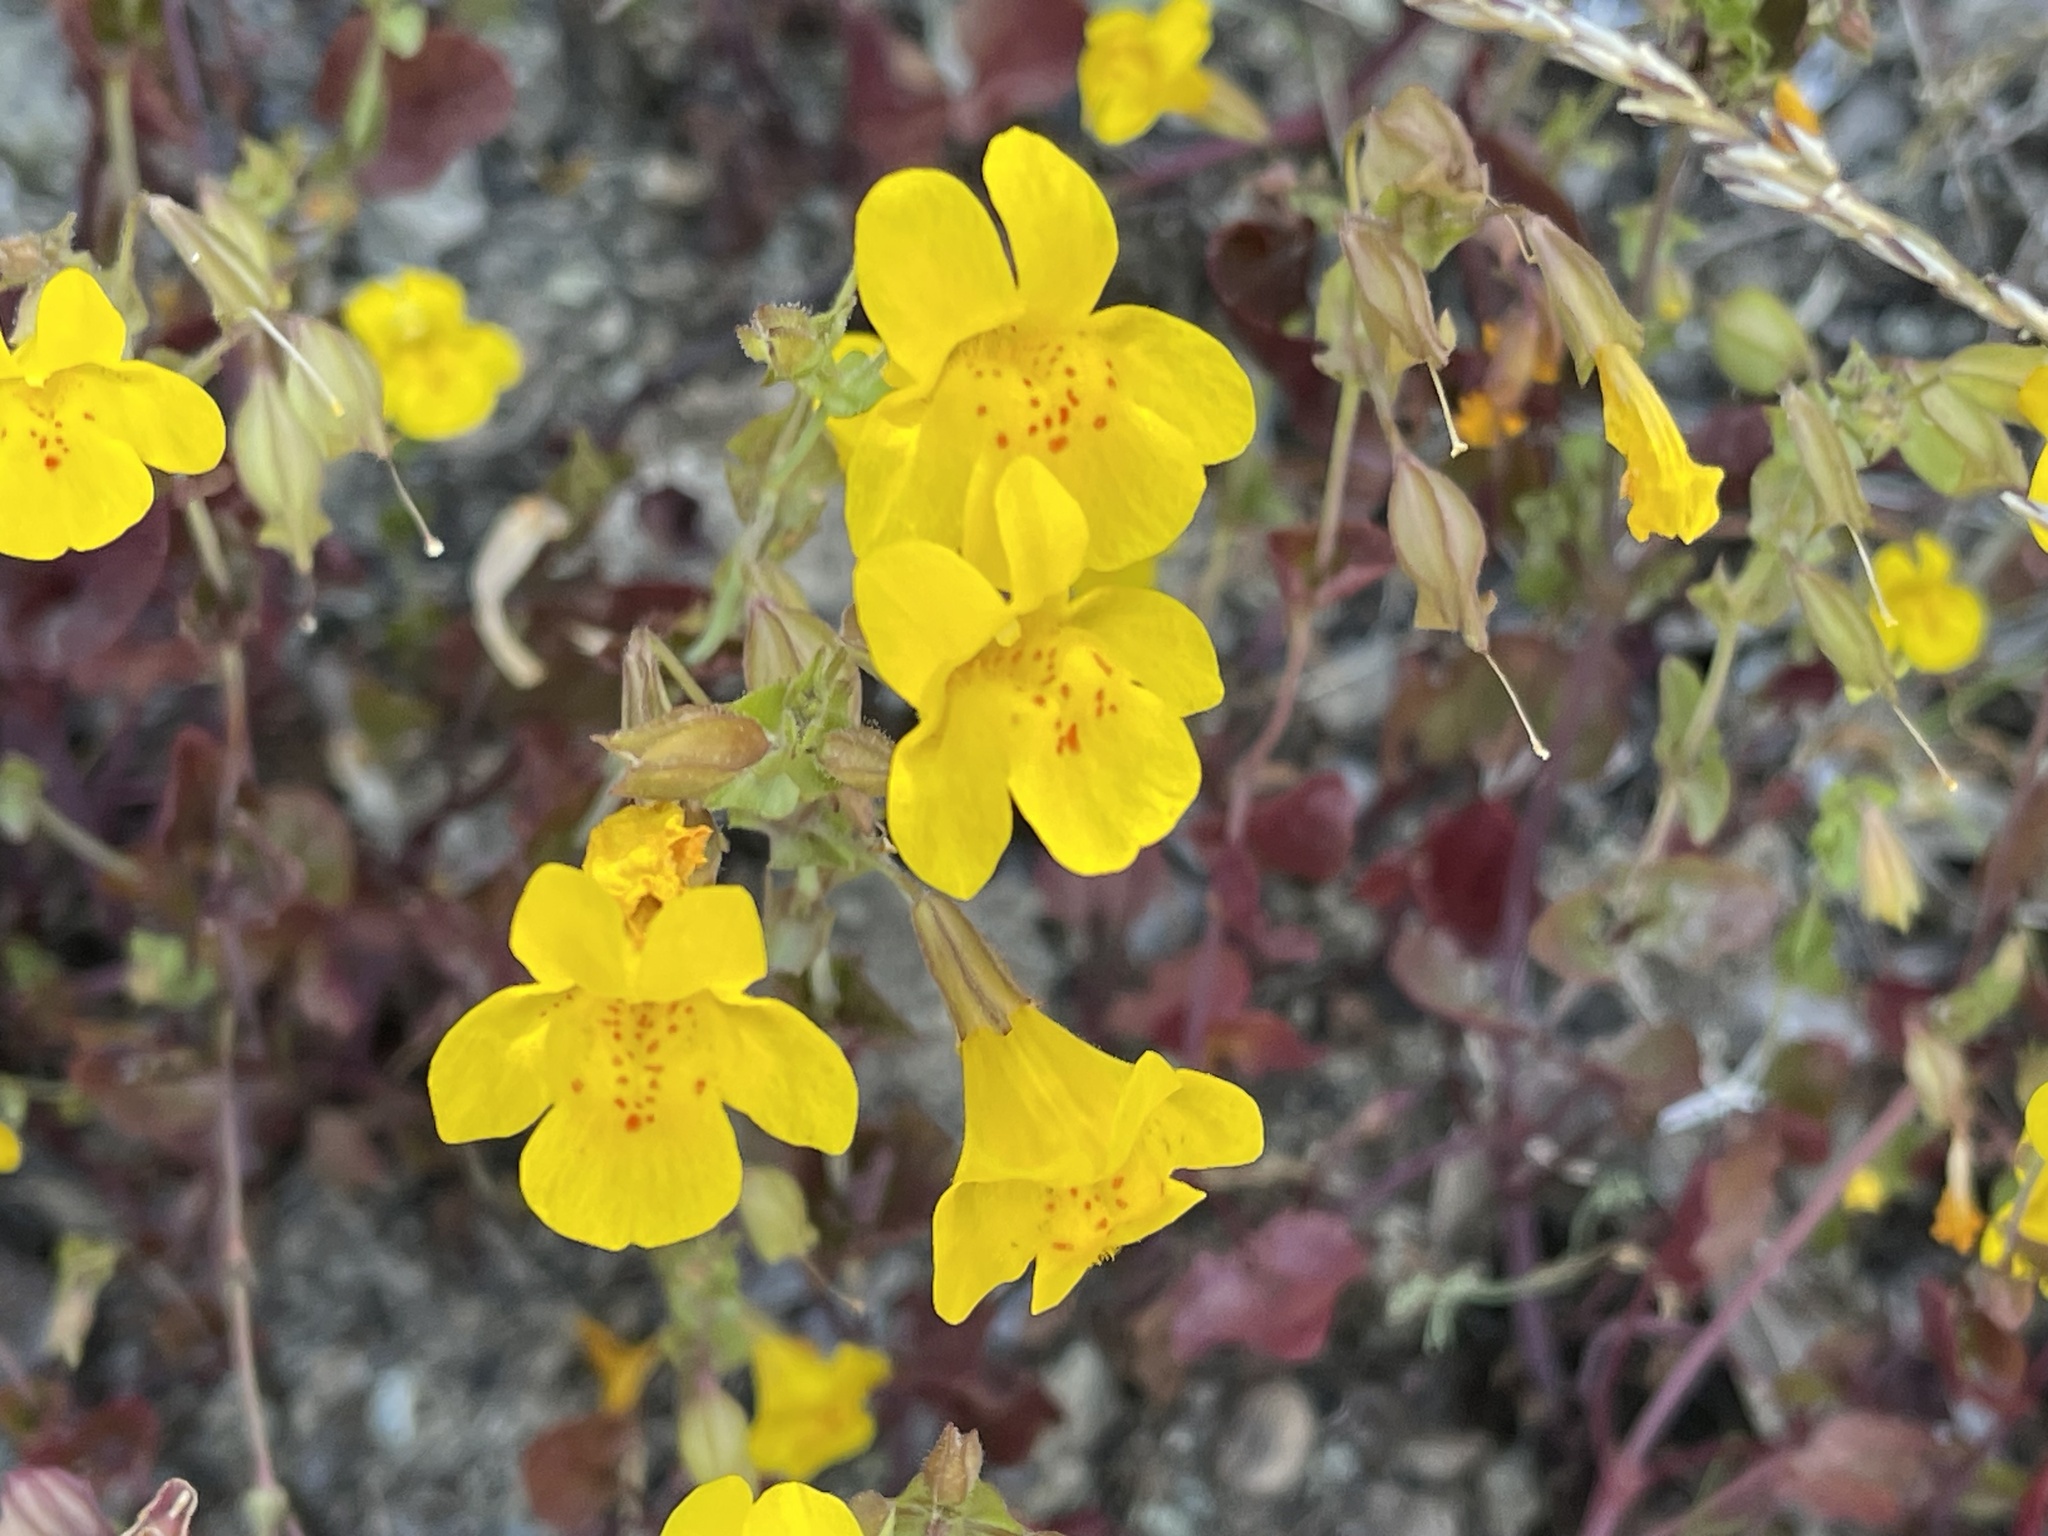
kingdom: Plantae
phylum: Tracheophyta
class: Magnoliopsida
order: Lamiales
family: Phrymaceae
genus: Erythranthe
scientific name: Erythranthe guttata
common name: Monkeyflower
